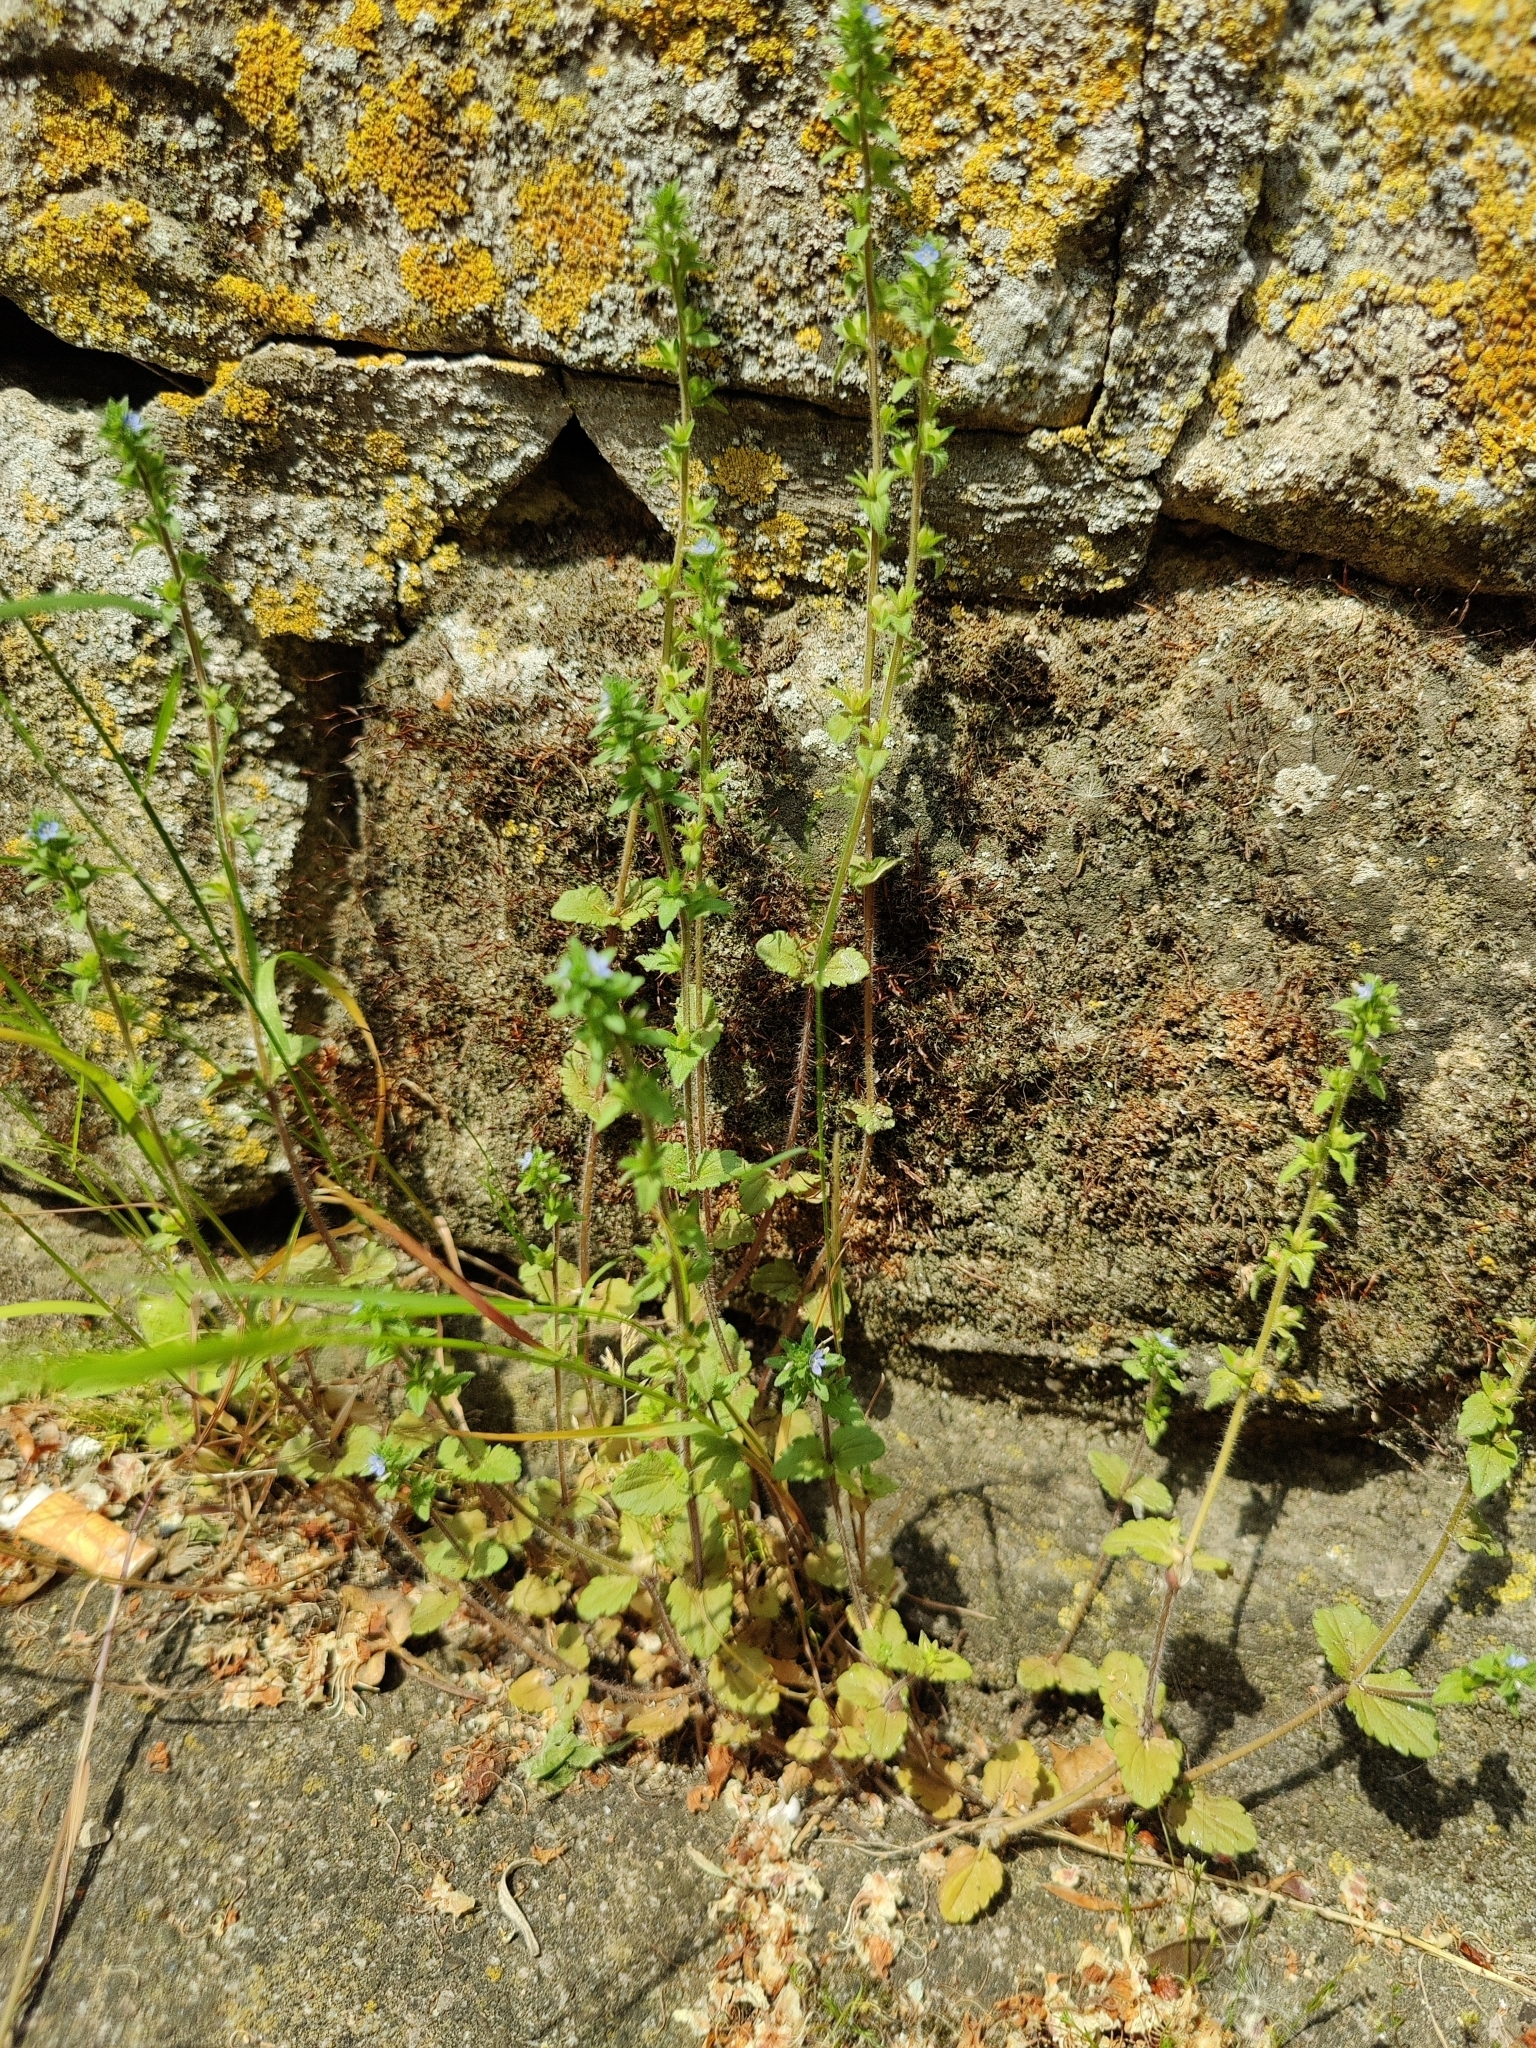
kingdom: Plantae
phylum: Tracheophyta
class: Magnoliopsida
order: Lamiales
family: Plantaginaceae
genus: Veronica
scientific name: Veronica arvensis
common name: Corn speedwell
